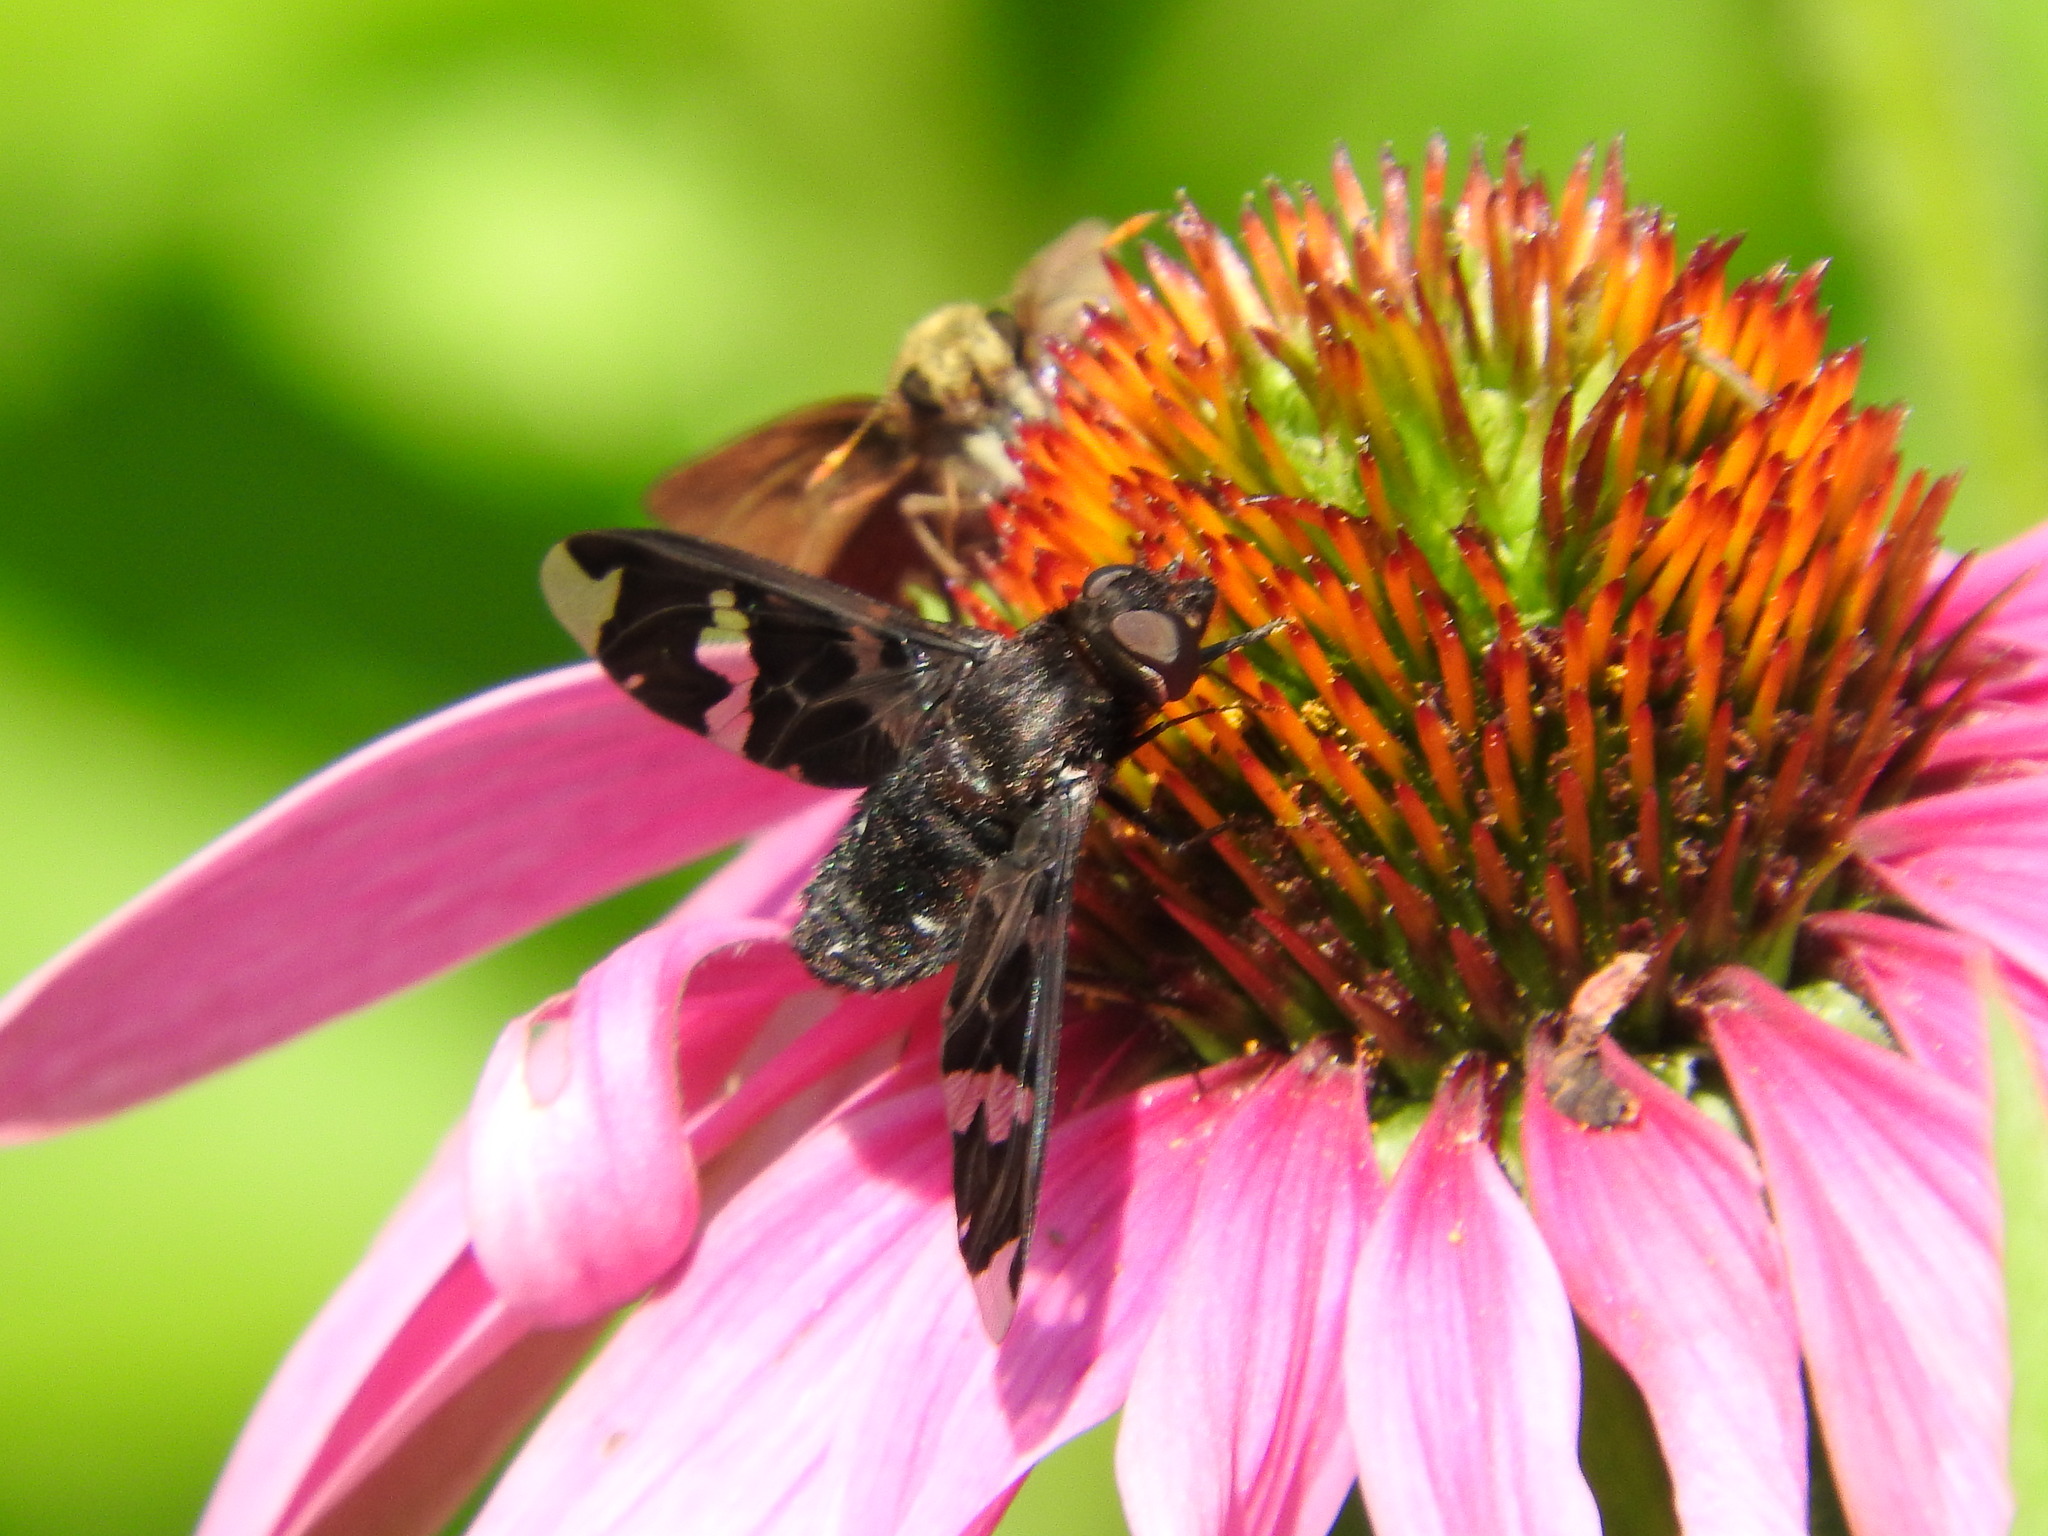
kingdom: Animalia
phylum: Arthropoda
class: Insecta
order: Diptera
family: Bombyliidae
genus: Exoprosopa
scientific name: Exoprosopa decora
